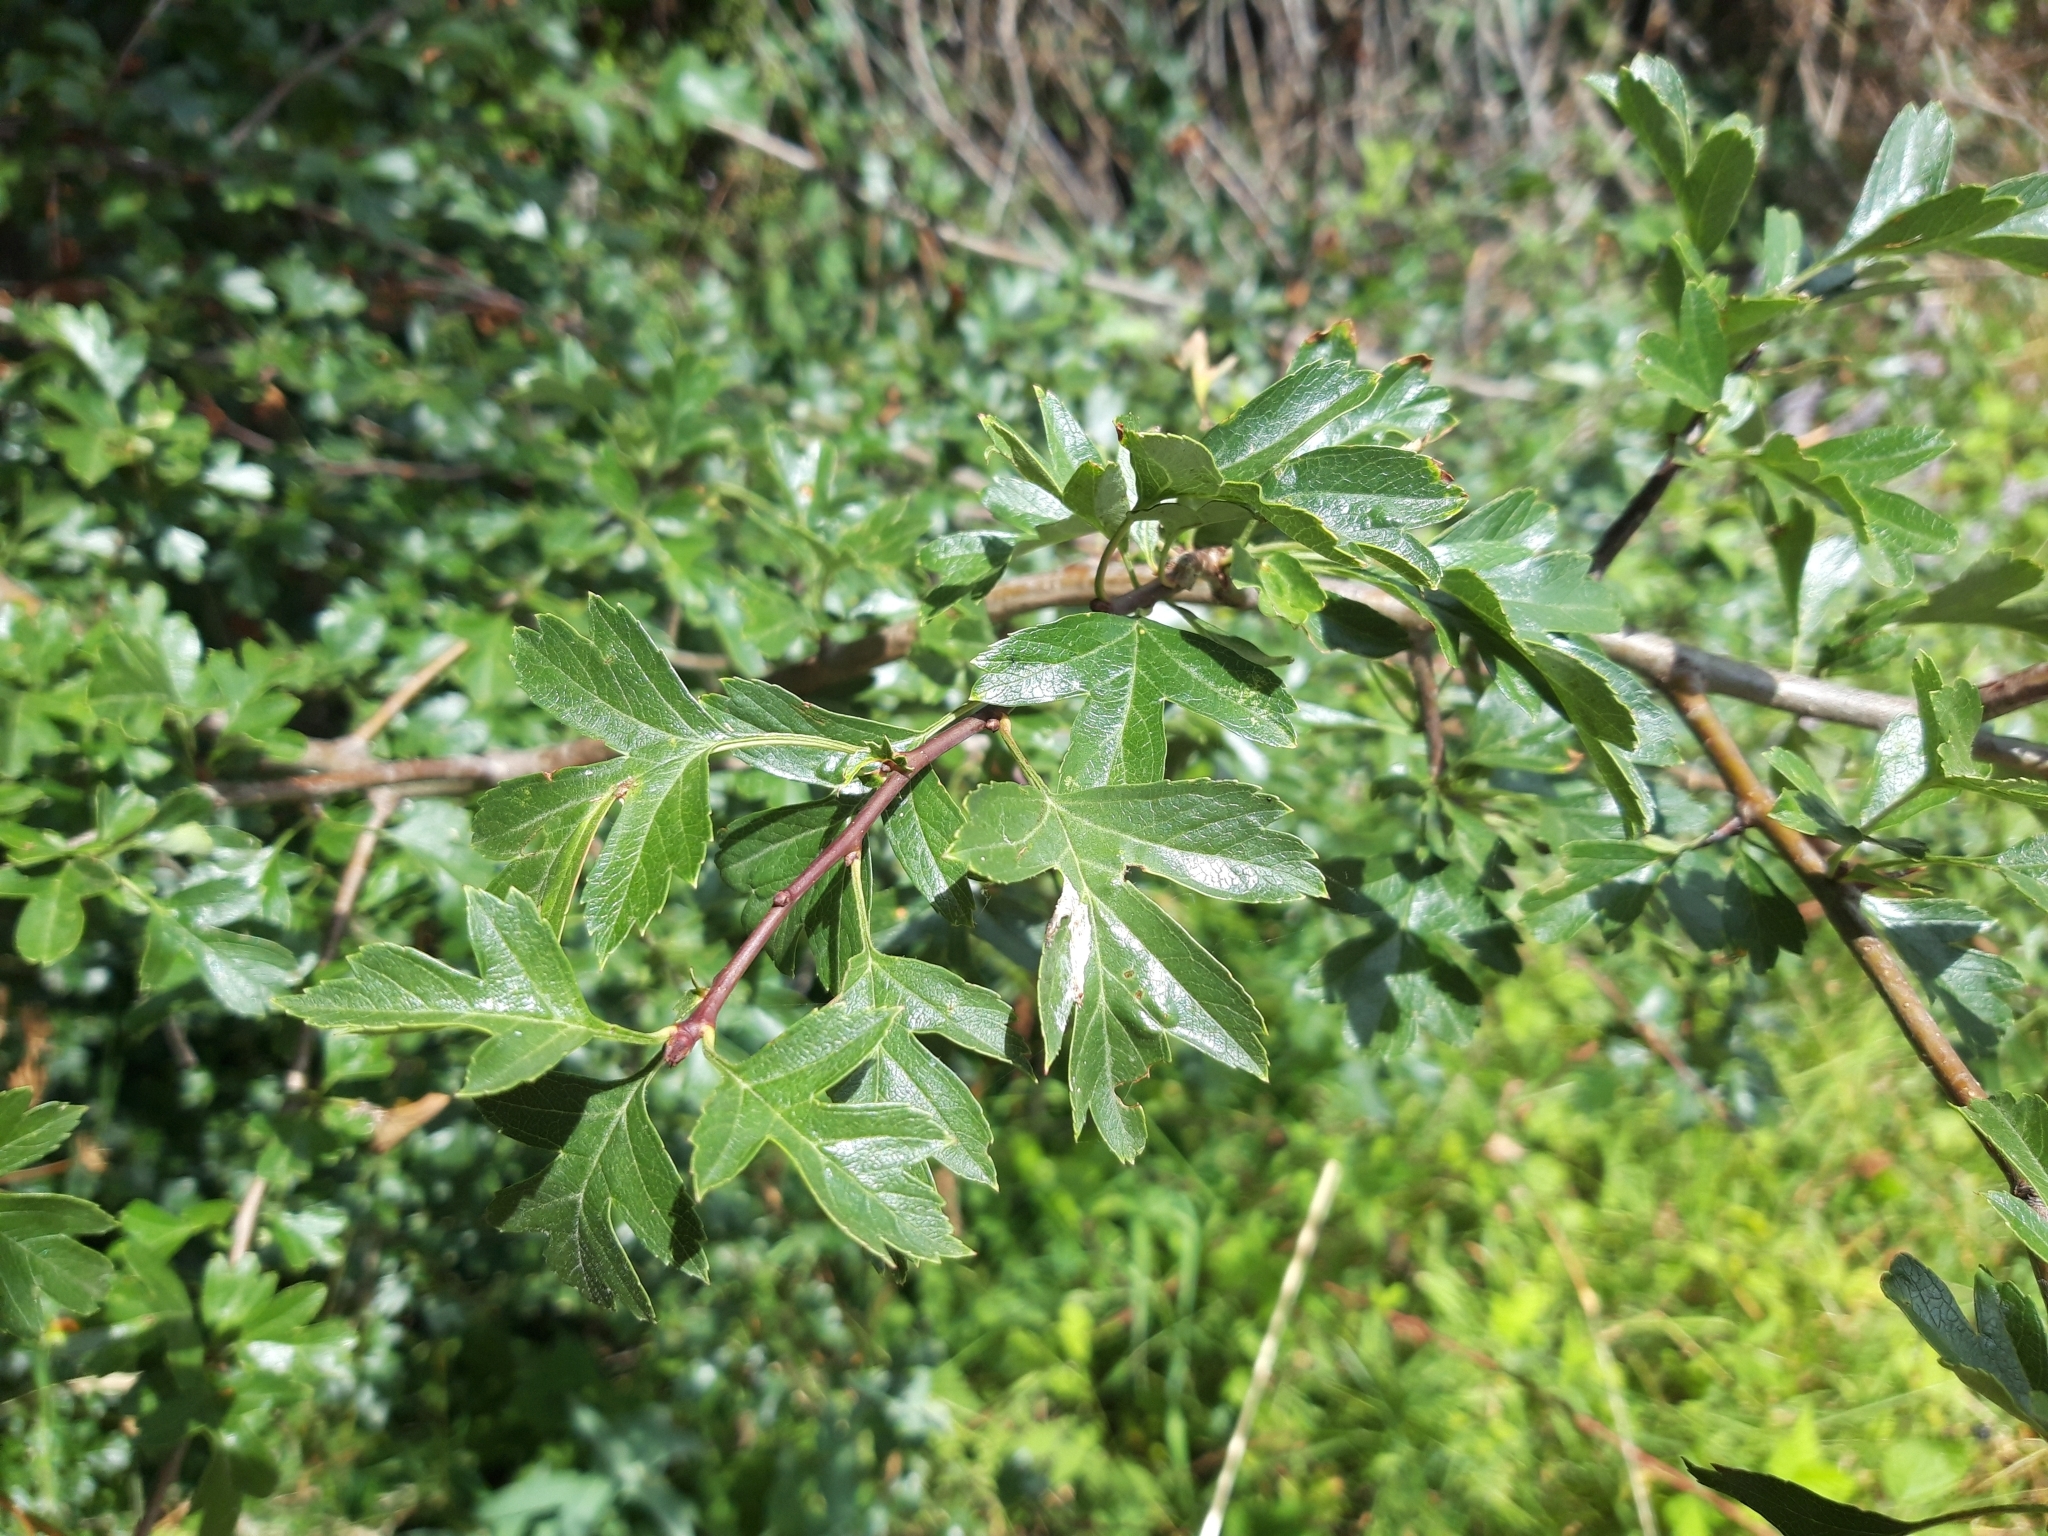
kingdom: Plantae
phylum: Tracheophyta
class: Magnoliopsida
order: Rosales
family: Rosaceae
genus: Crataegus
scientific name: Crataegus monogyna
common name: Hawthorn
